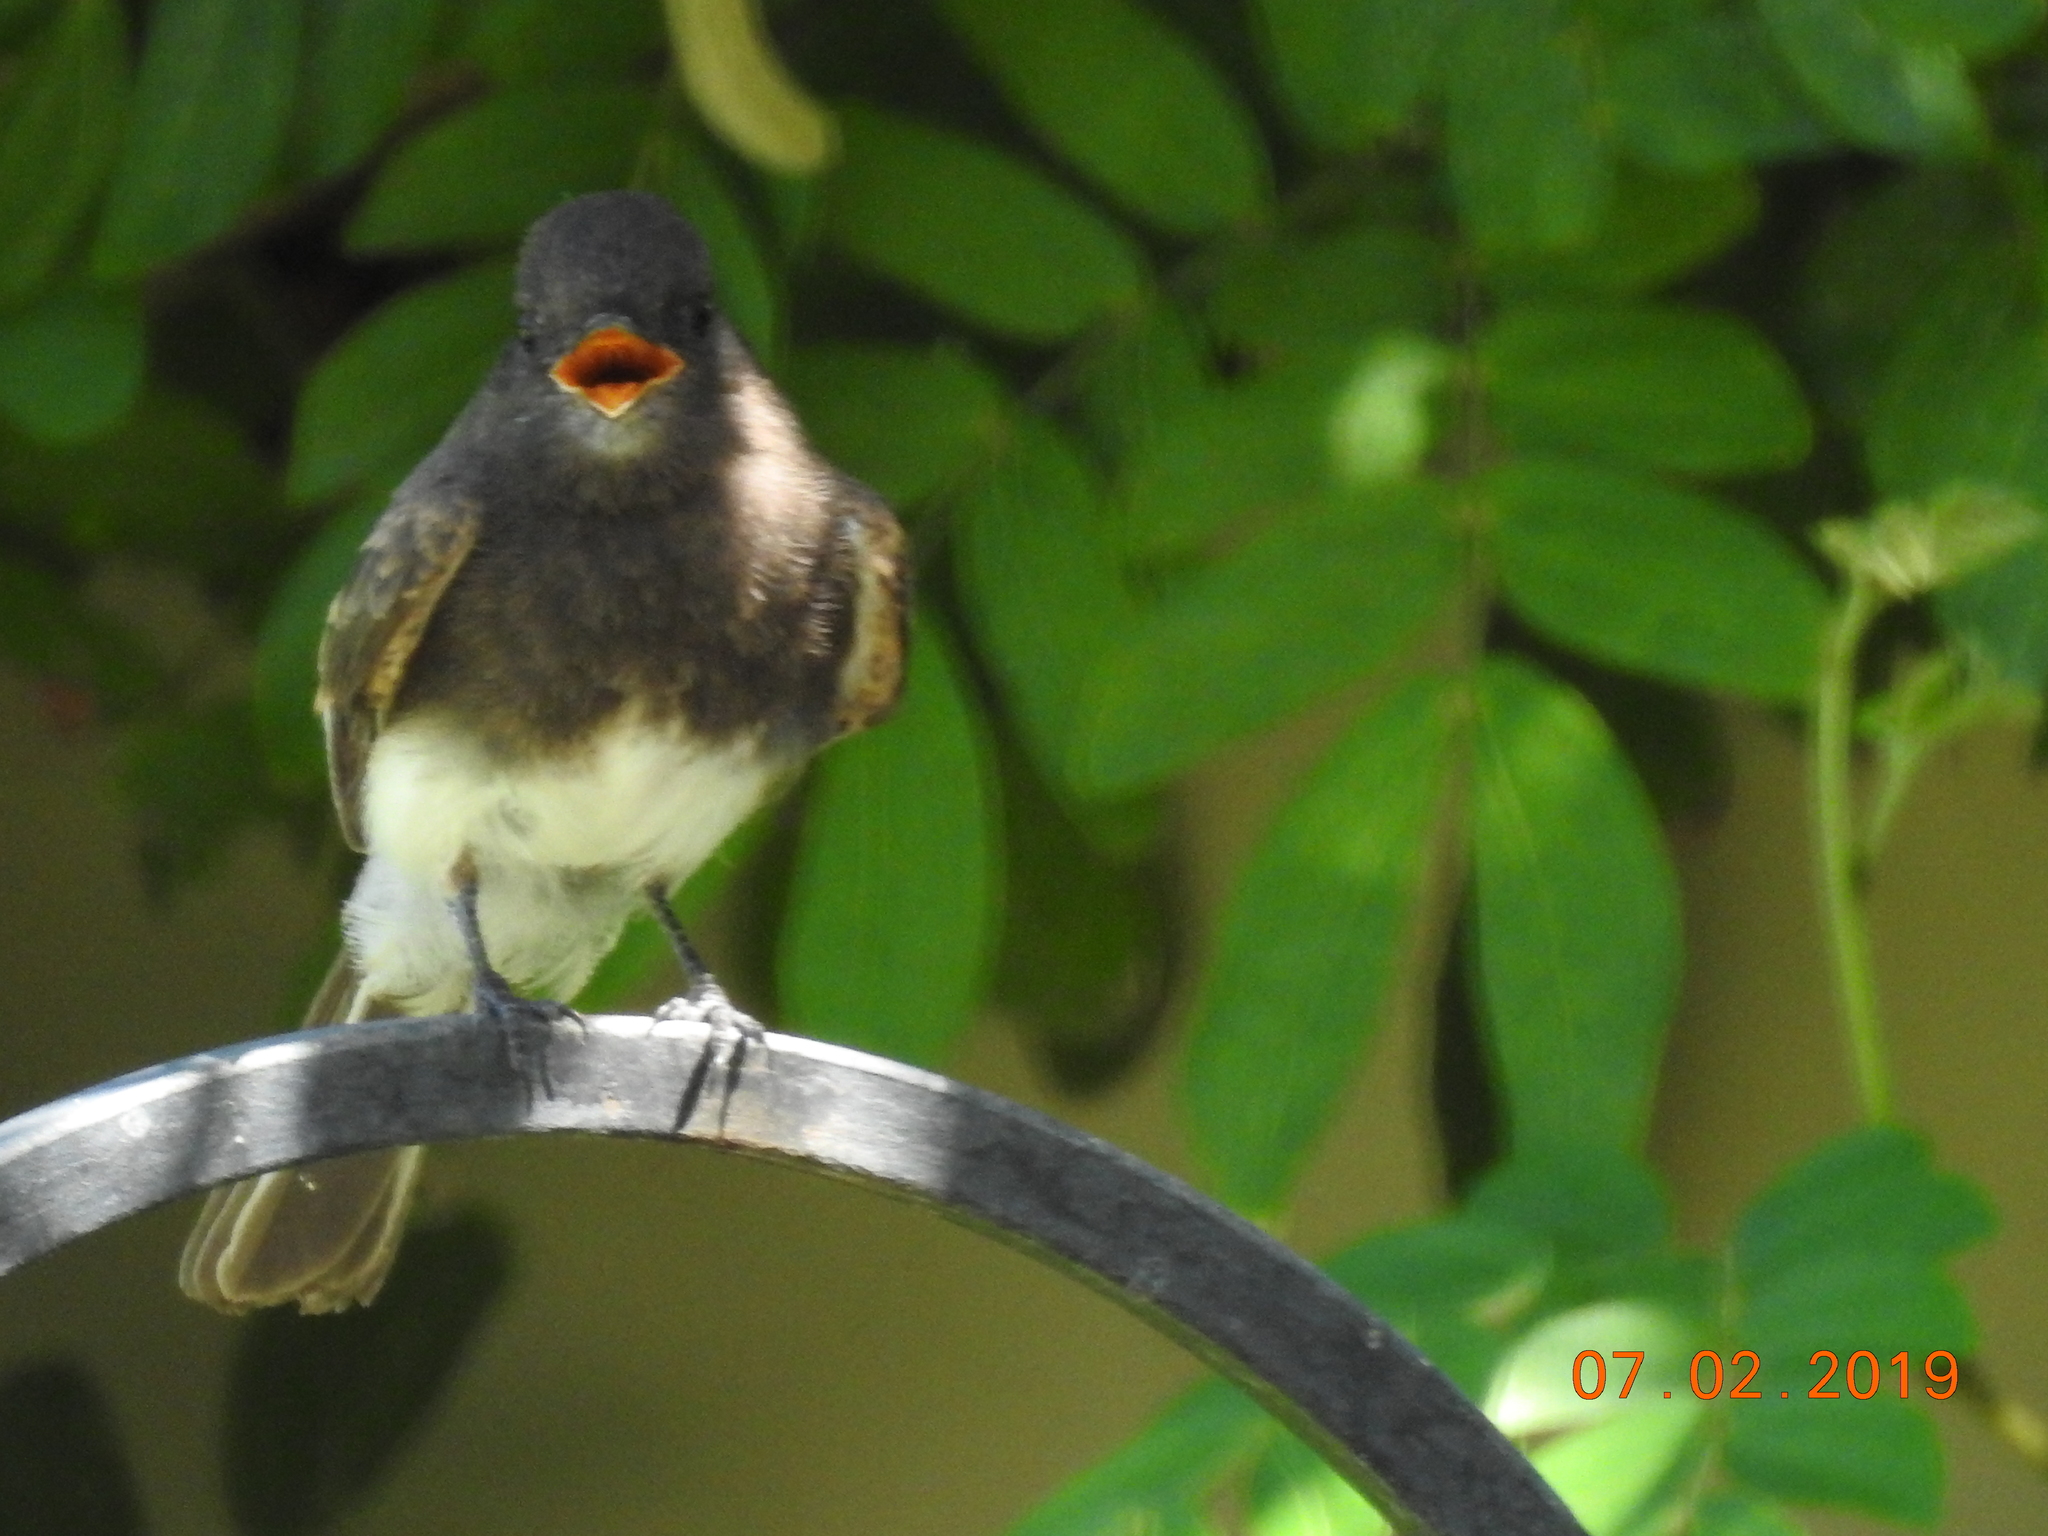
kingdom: Animalia
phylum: Chordata
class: Aves
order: Passeriformes
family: Tyrannidae
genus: Sayornis
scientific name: Sayornis nigricans
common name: Black phoebe
